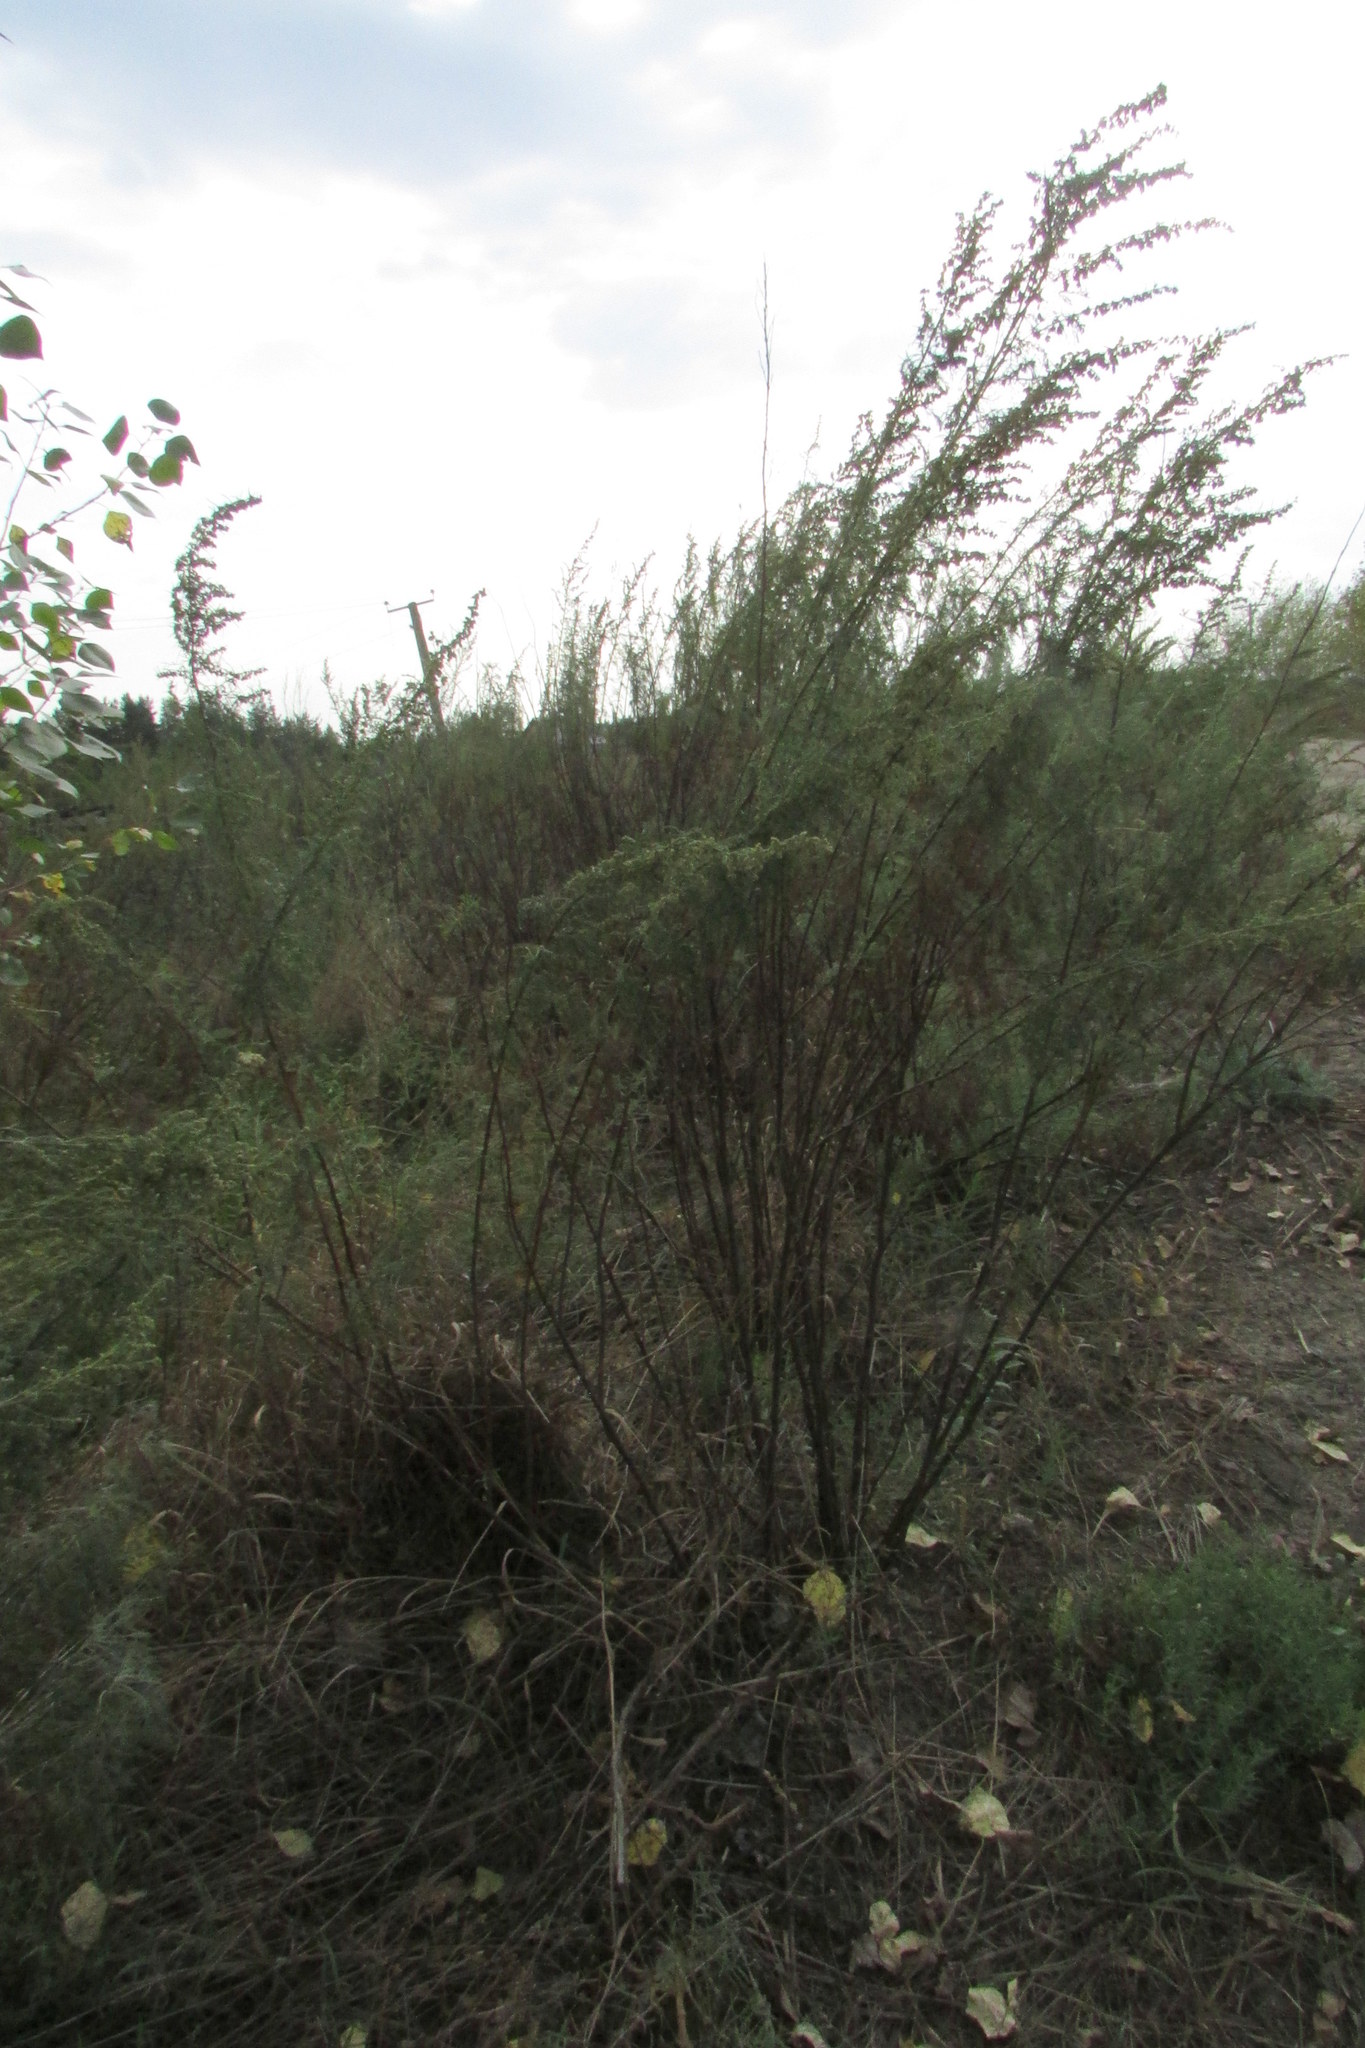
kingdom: Plantae
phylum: Tracheophyta
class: Magnoliopsida
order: Asterales
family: Asteraceae
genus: Artemisia
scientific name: Artemisia abrotanum
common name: Southernwood
